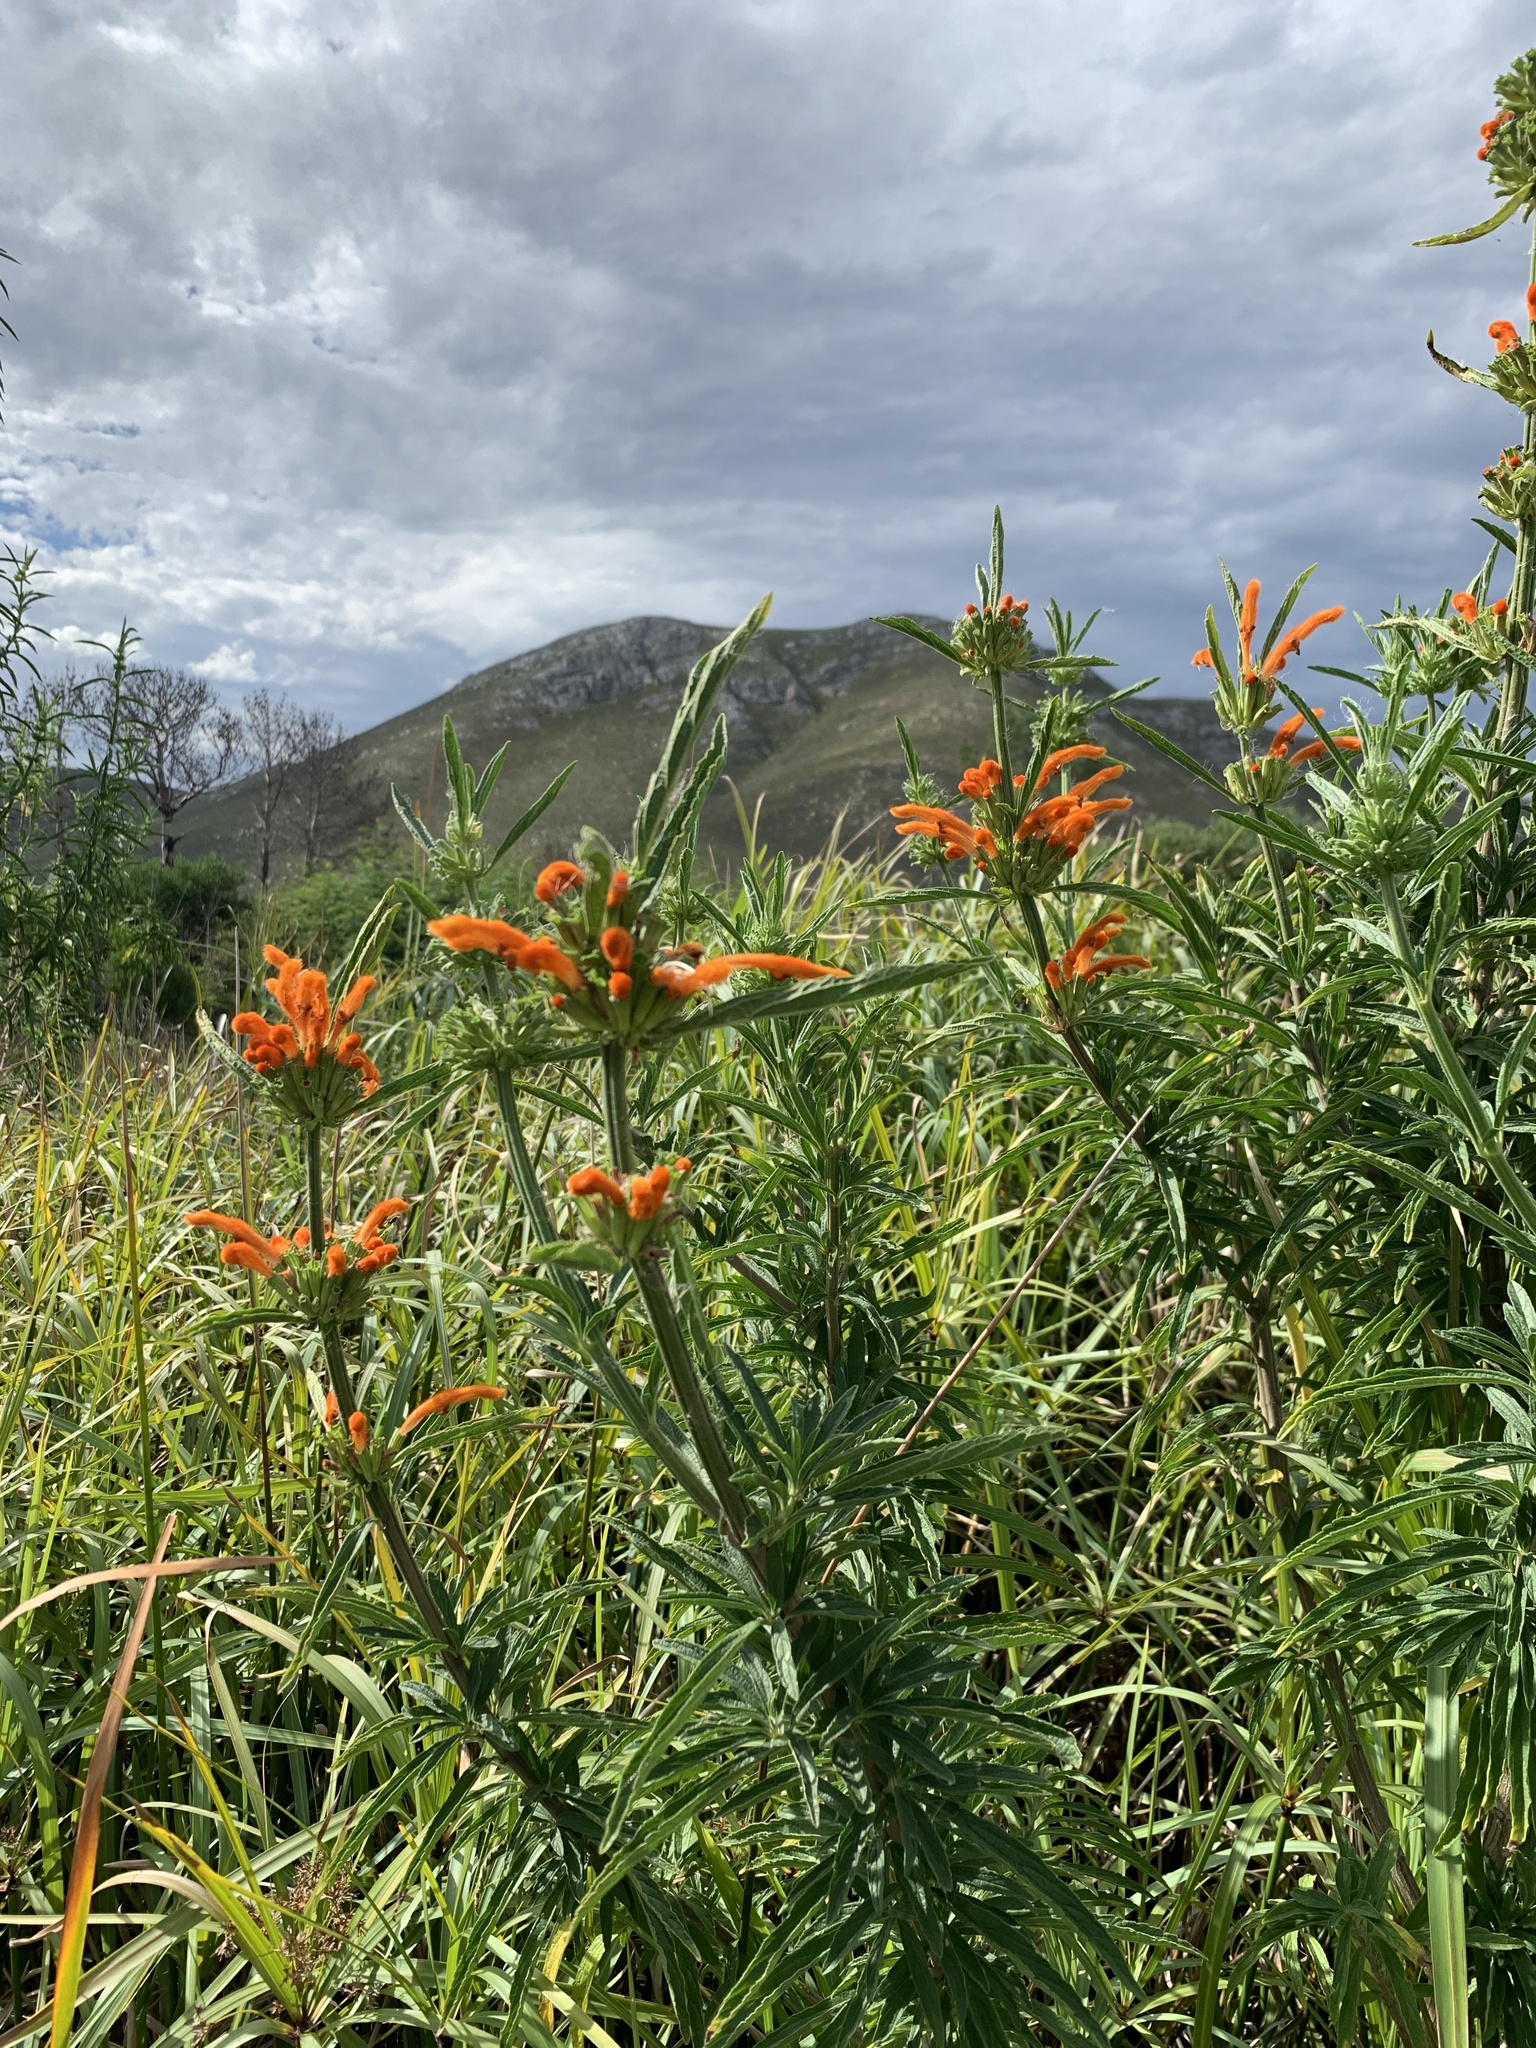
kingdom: Plantae
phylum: Tracheophyta
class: Magnoliopsida
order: Lamiales
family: Lamiaceae
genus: Leonotis
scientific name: Leonotis leonurus
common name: Lion's ear
